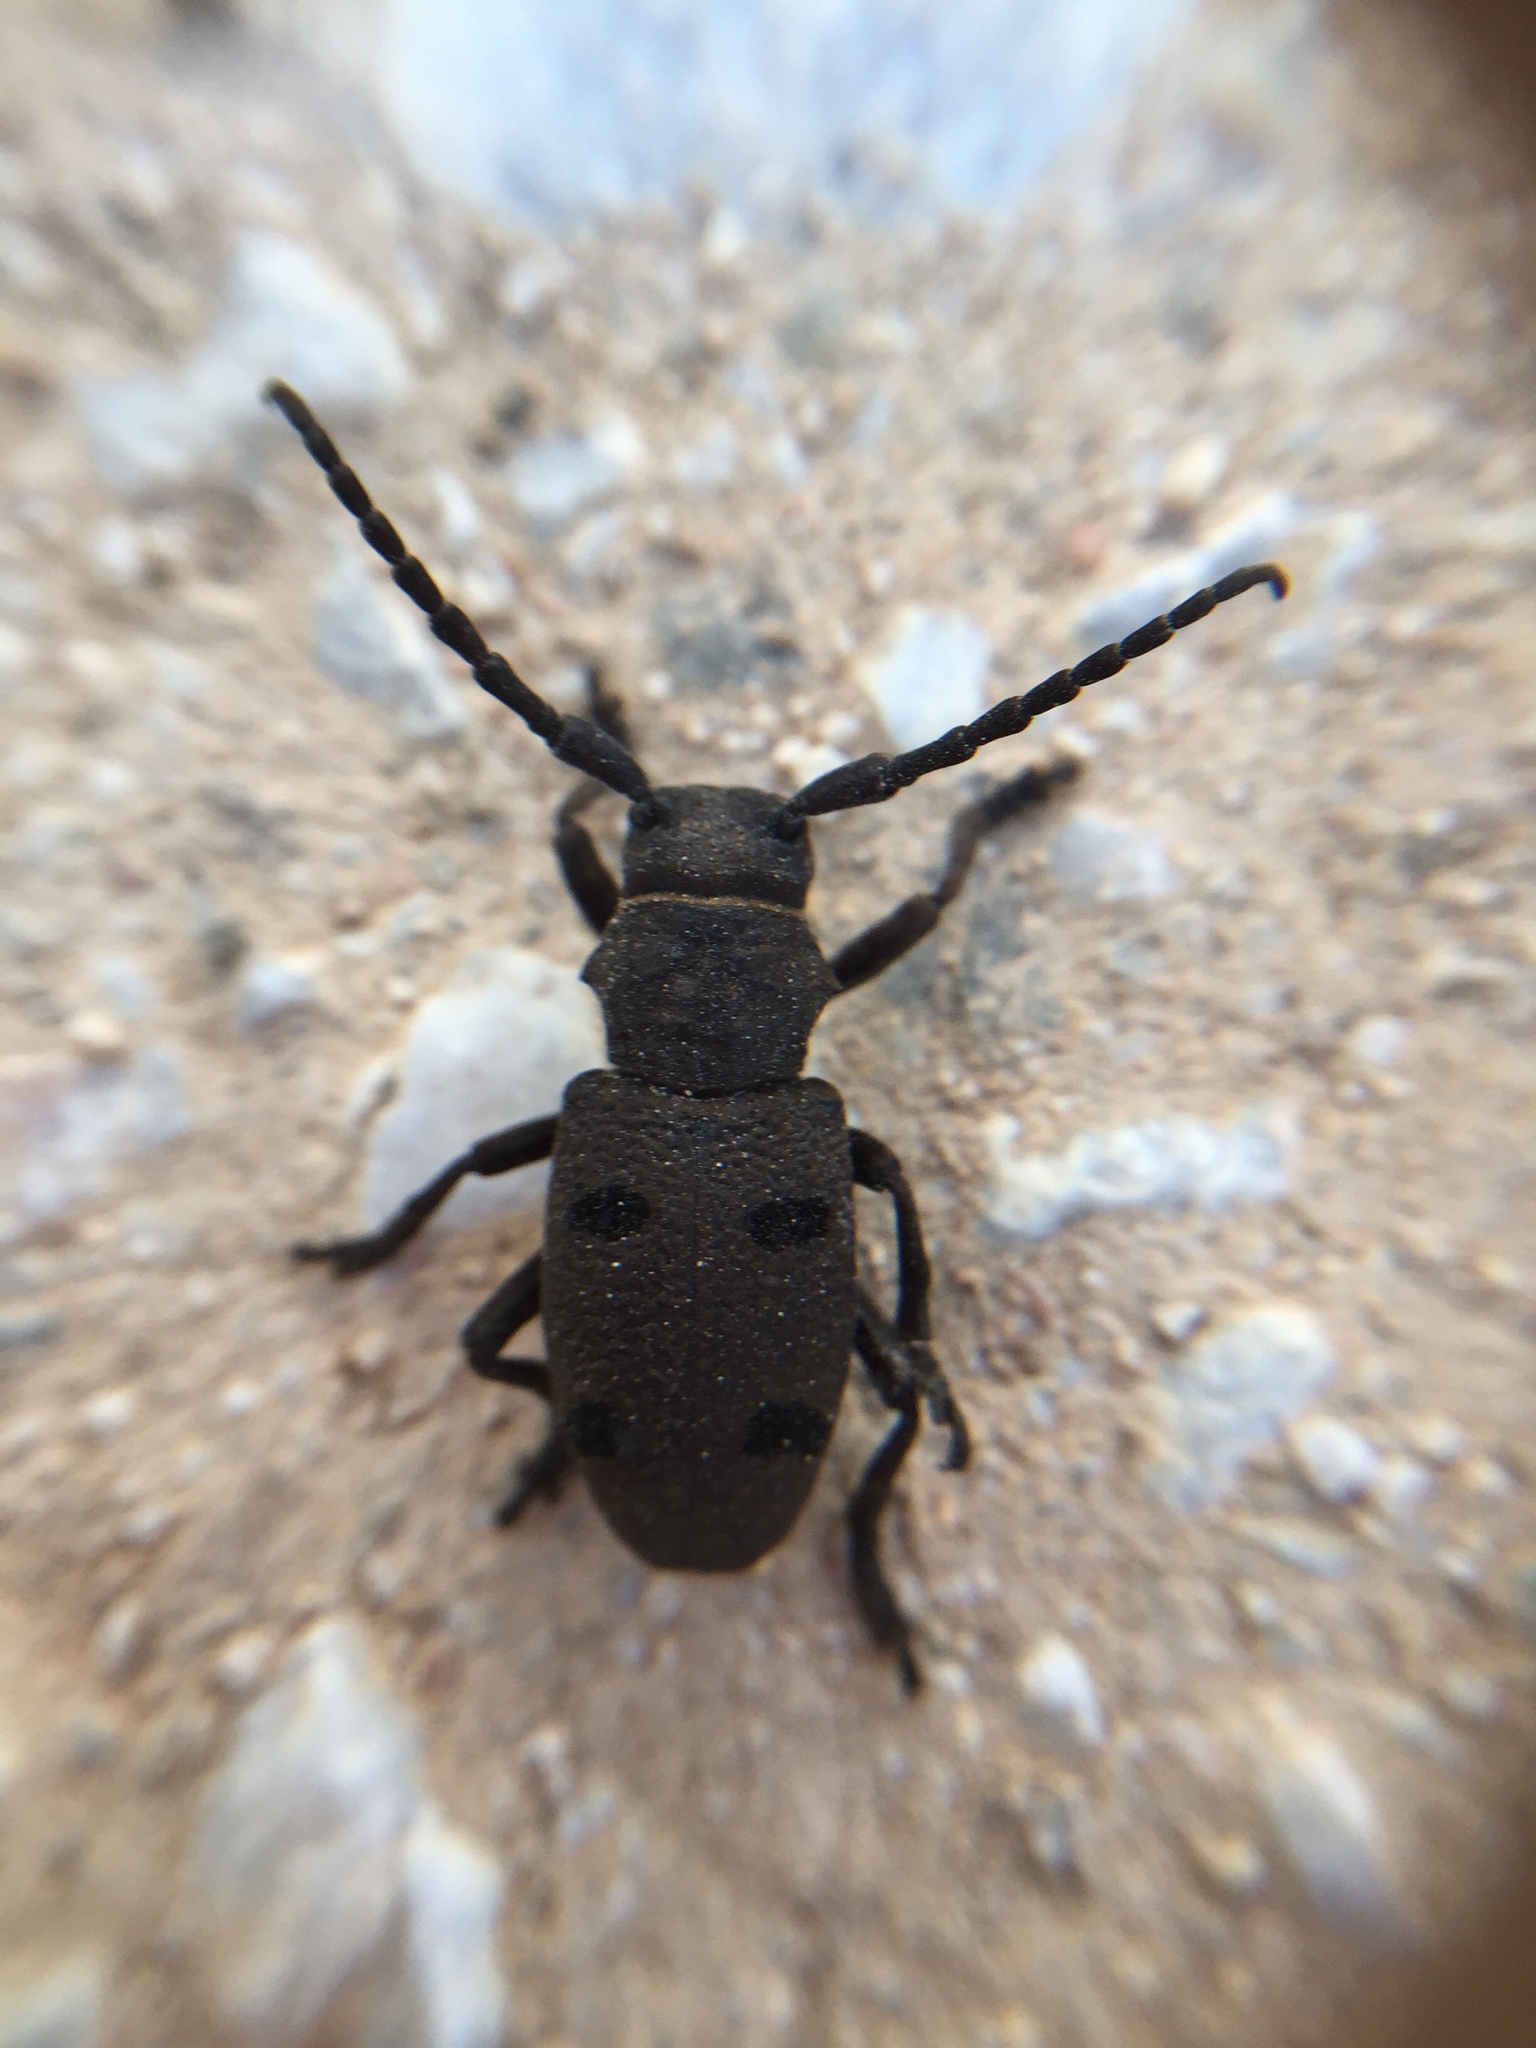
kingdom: Animalia
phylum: Arthropoda
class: Insecta
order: Coleoptera
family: Cerambycidae
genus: Herophila
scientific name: Herophila tristis
